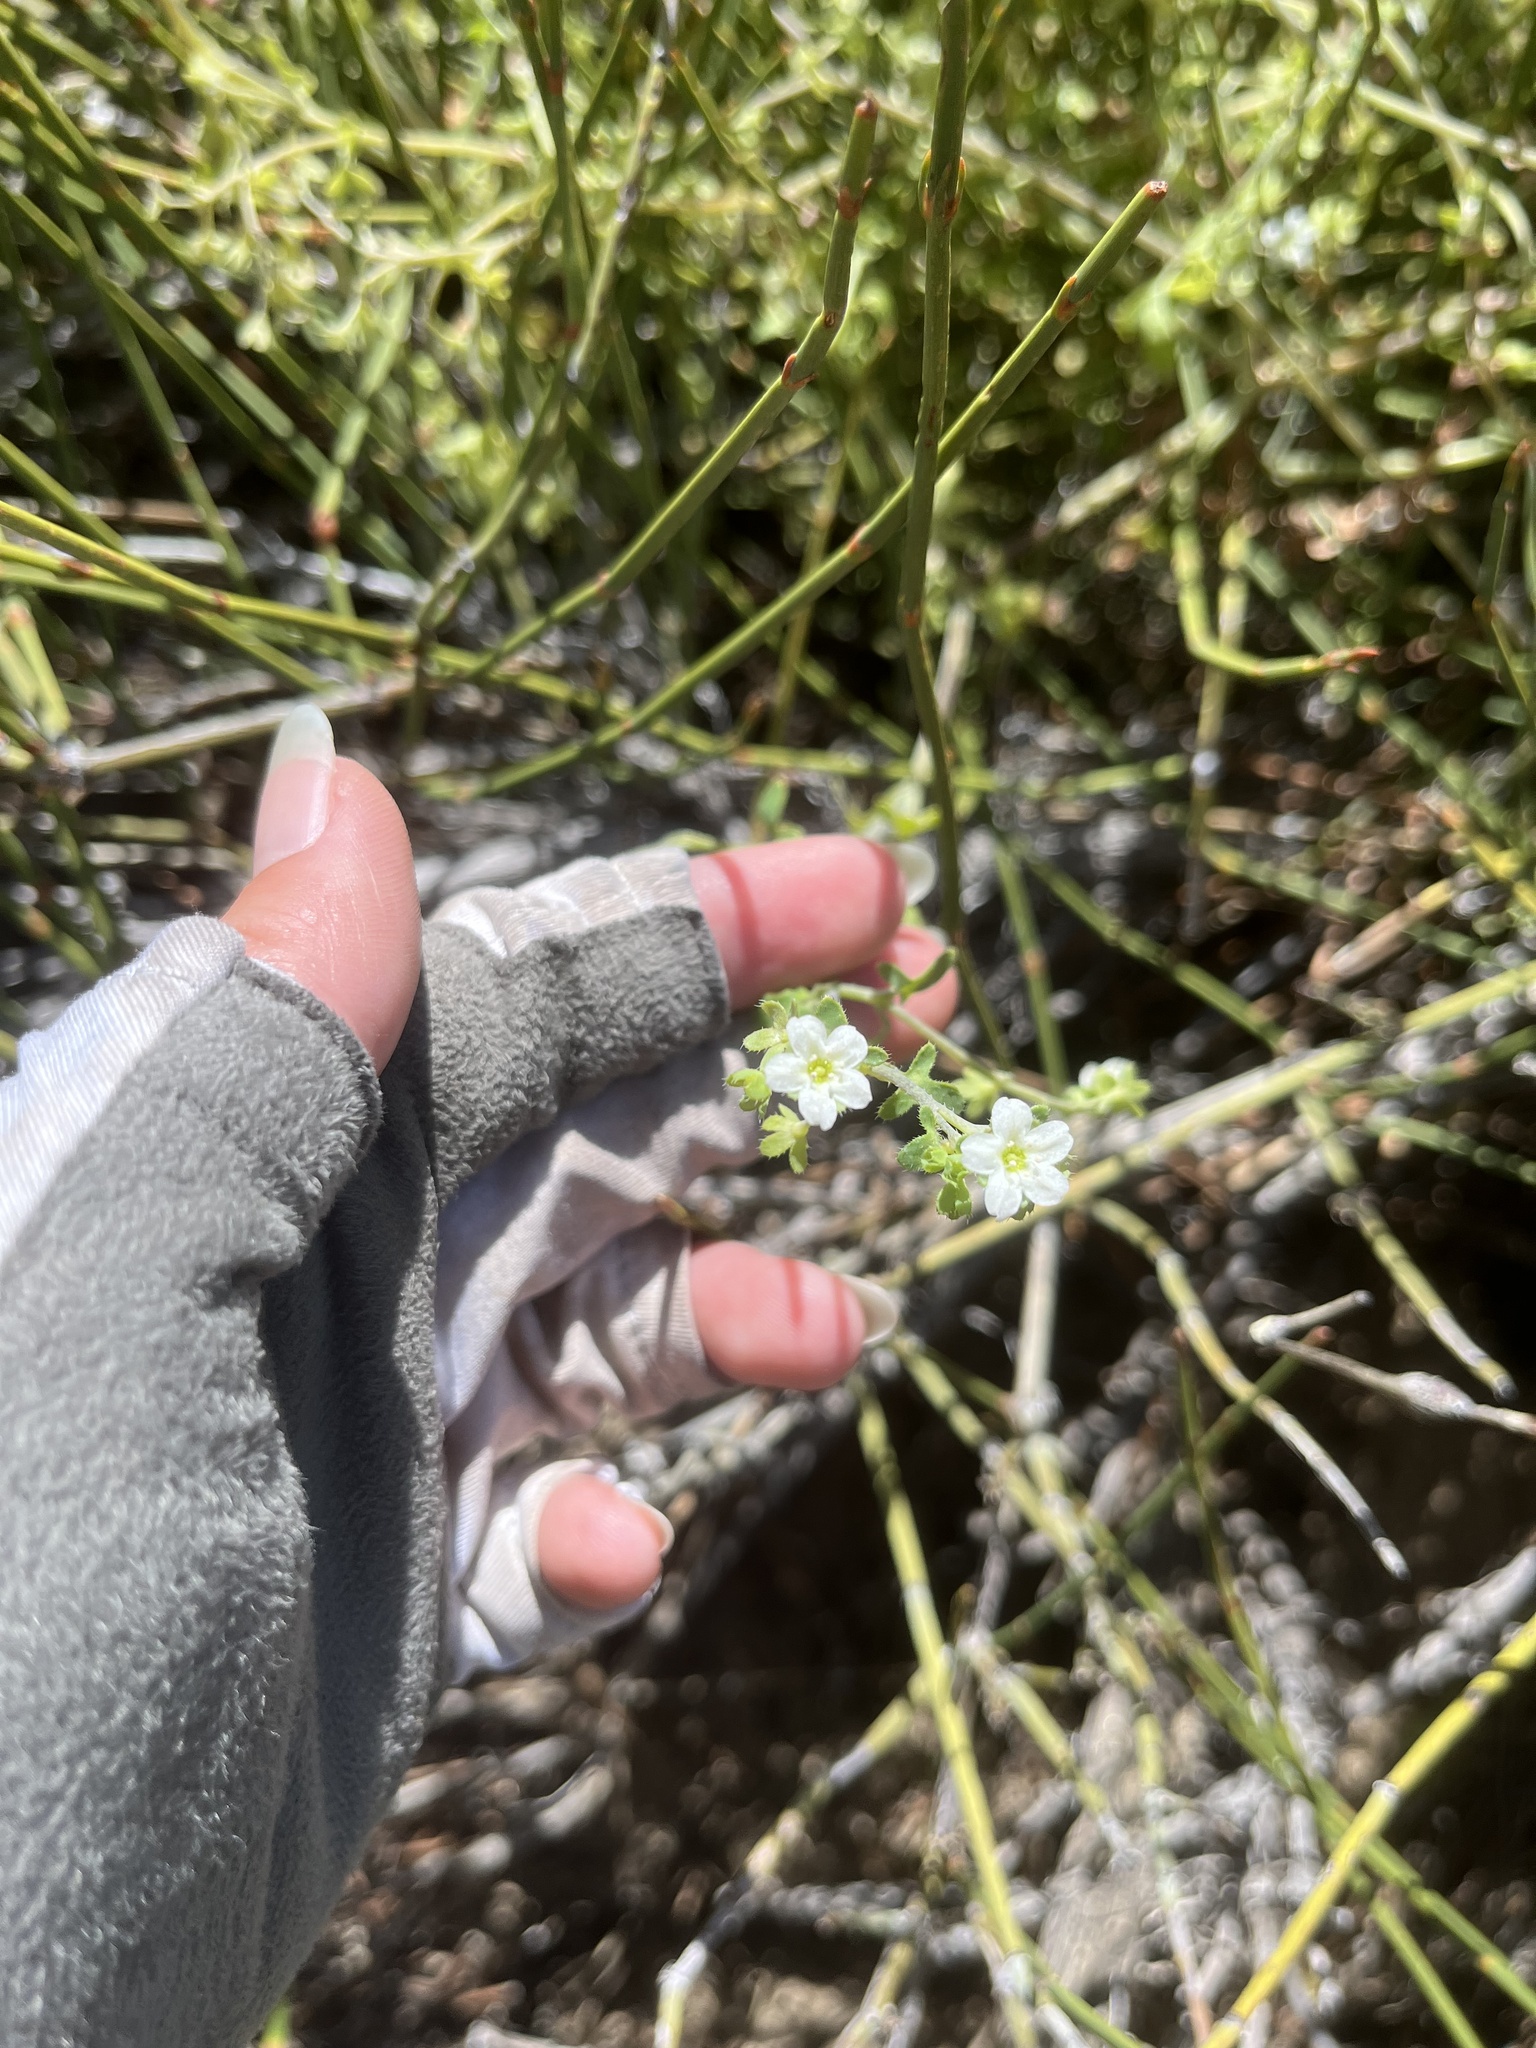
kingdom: Plantae
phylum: Tracheophyta
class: Magnoliopsida
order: Boraginales
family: Hydrophyllaceae
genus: Pholistoma
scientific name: Pholistoma membranaceum
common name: White fiesta-flower
